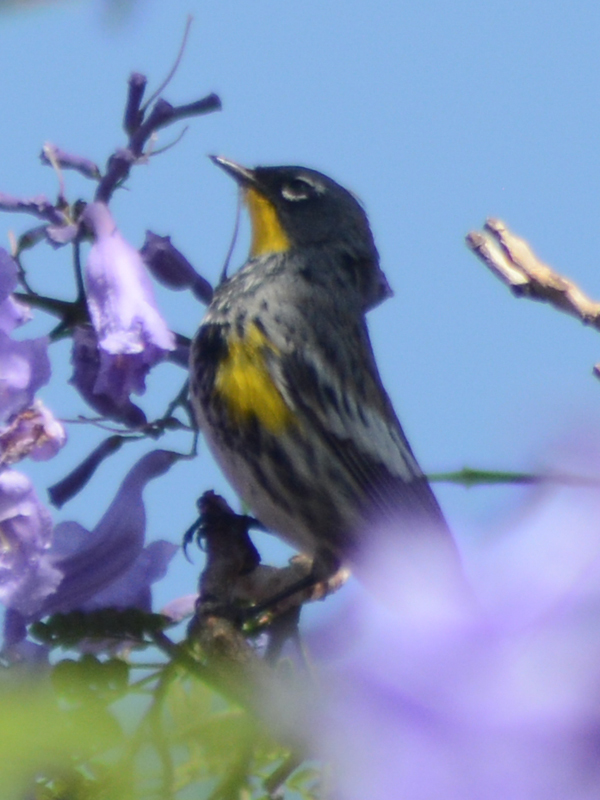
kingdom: Animalia
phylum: Chordata
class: Aves
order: Passeriformes
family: Parulidae
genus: Setophaga
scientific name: Setophaga auduboni
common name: Audubon's warbler
